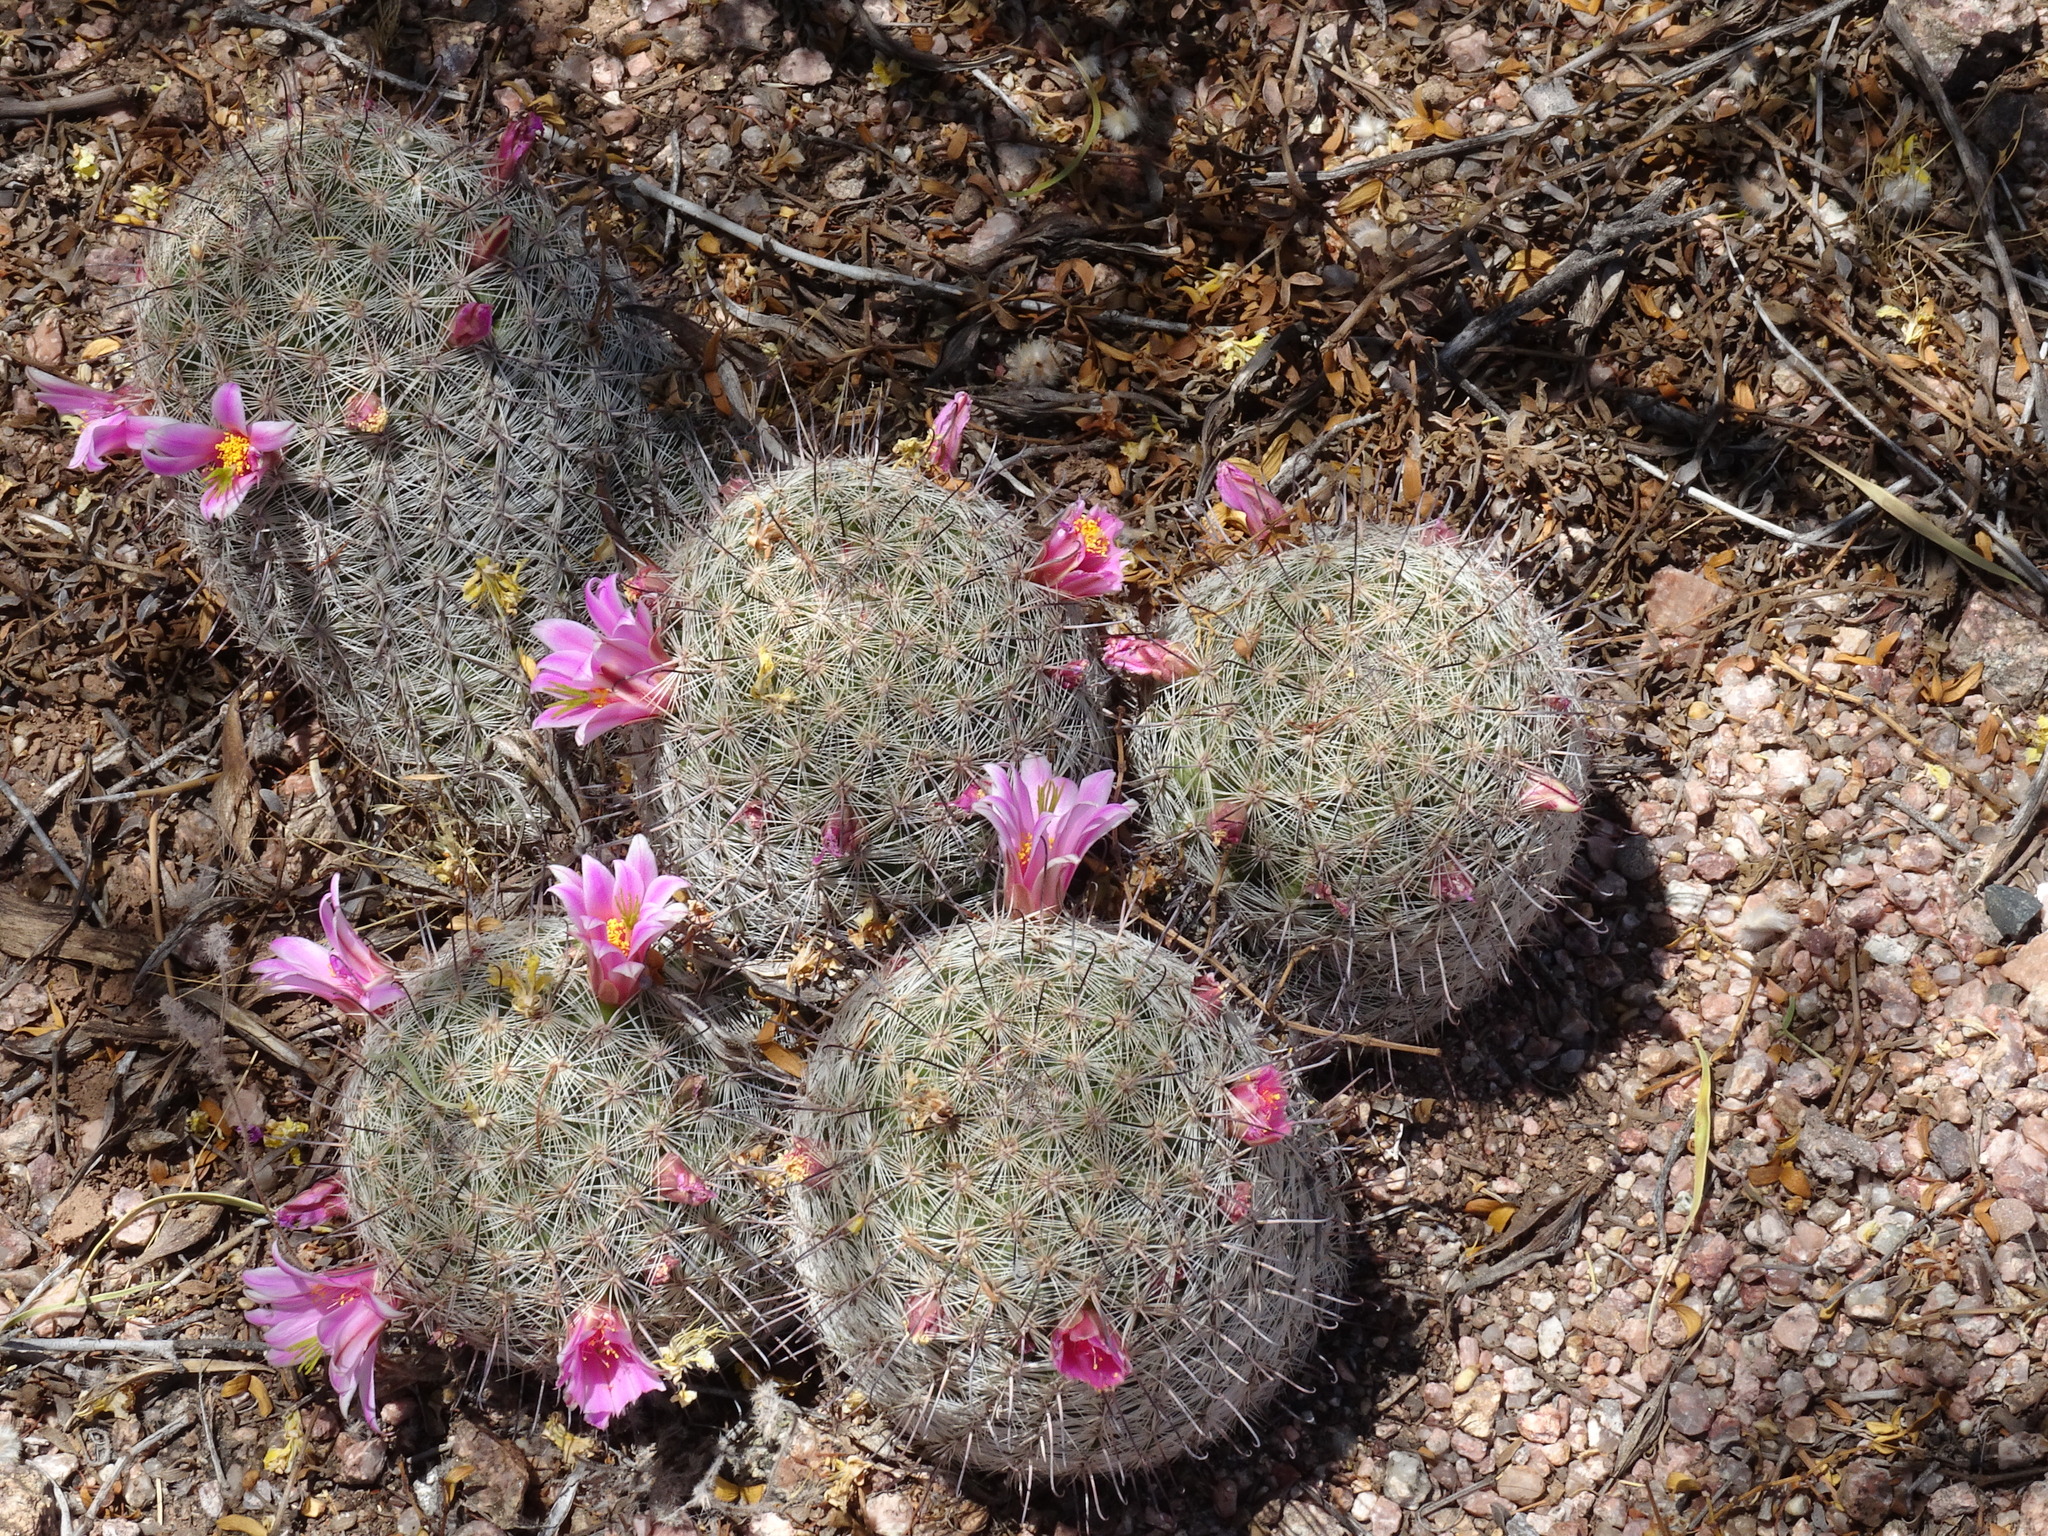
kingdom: Plantae
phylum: Tracheophyta
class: Magnoliopsida
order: Caryophyllales
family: Cactaceae
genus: Cochemiea
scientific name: Cochemiea grahamii
